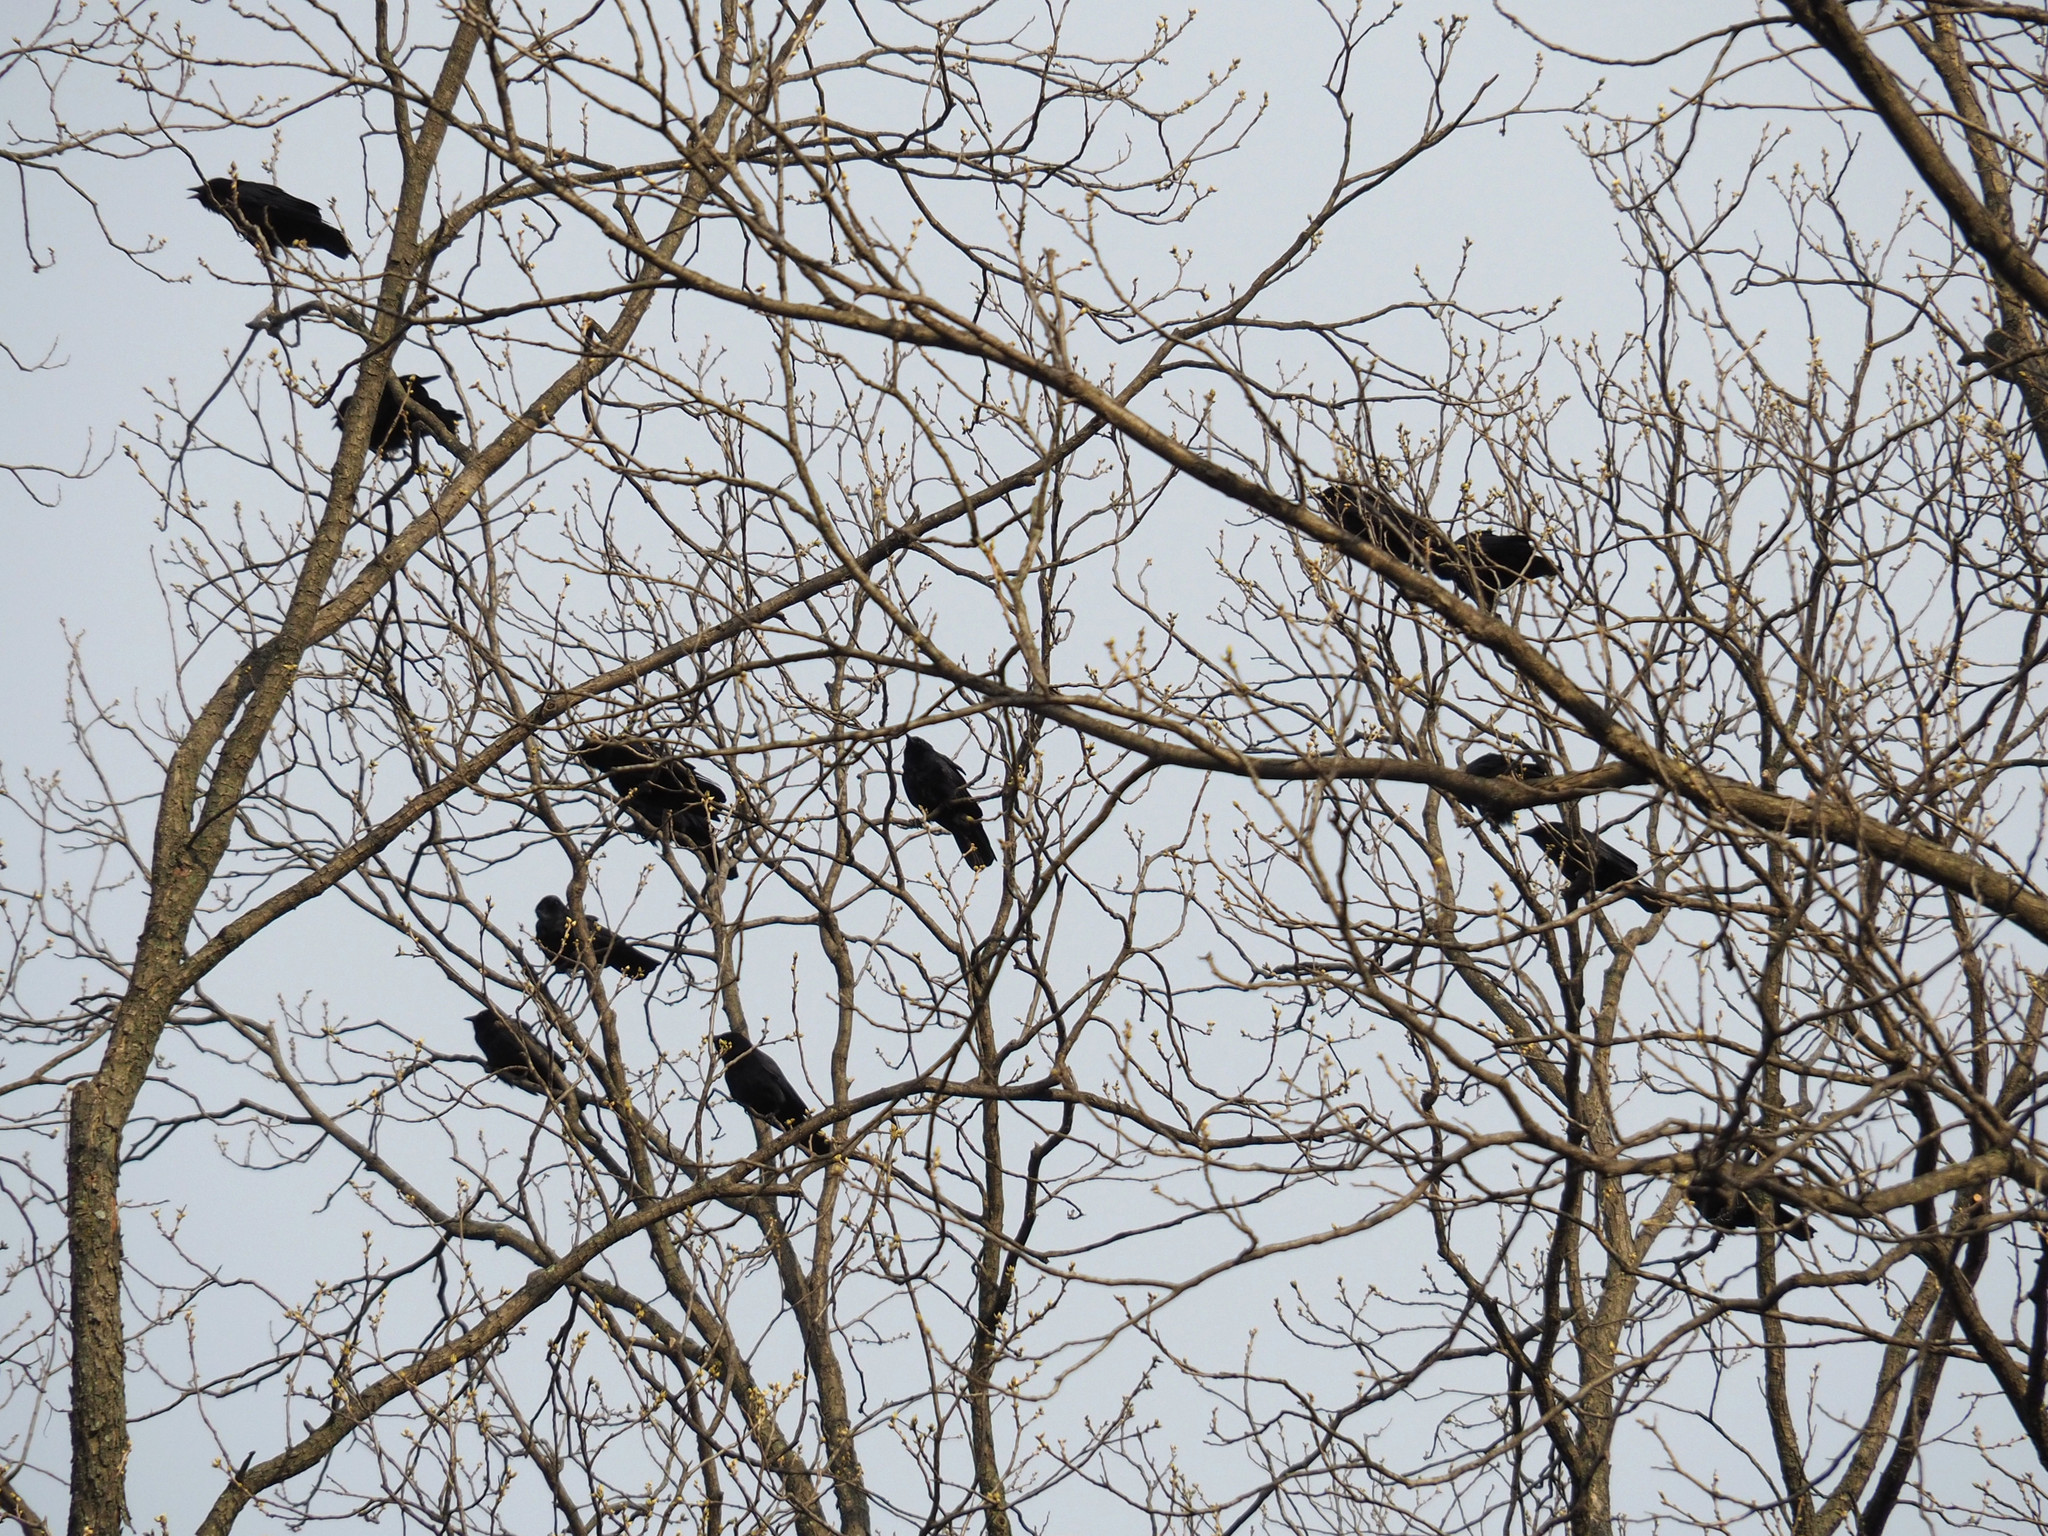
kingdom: Animalia
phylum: Chordata
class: Aves
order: Passeriformes
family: Corvidae
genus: Corvus
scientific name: Corvus ossifragus
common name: Fish crow
